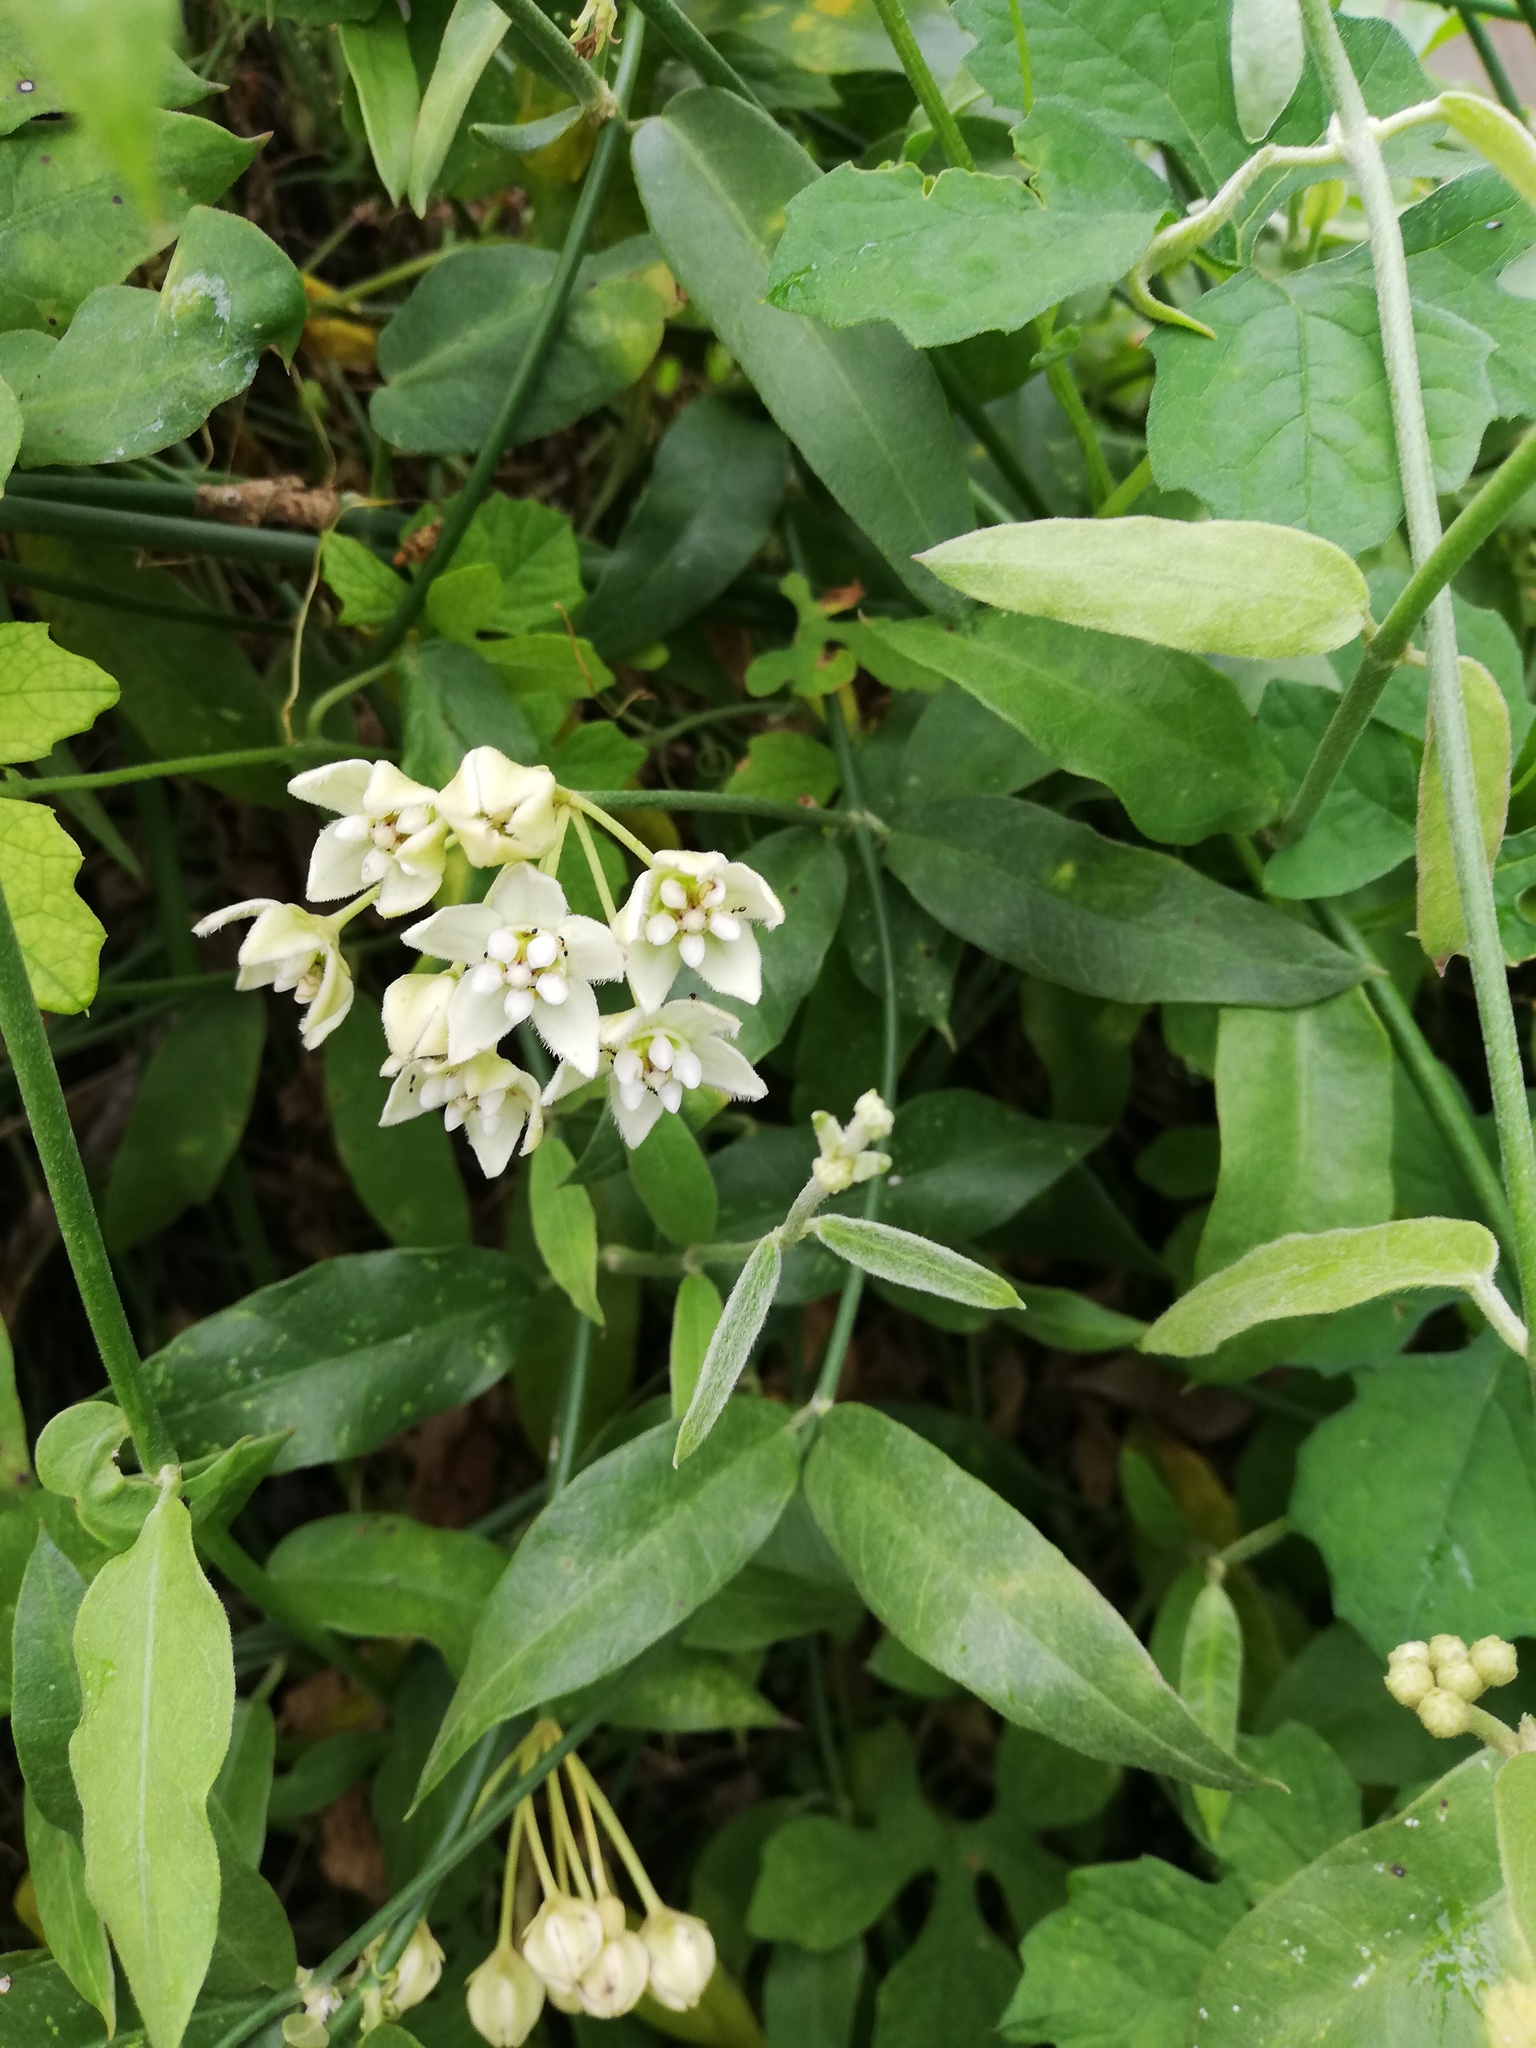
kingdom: Plantae
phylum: Tracheophyta
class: Magnoliopsida
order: Gentianales
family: Apocynaceae
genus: Funastrum
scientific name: Funastrum clausum
